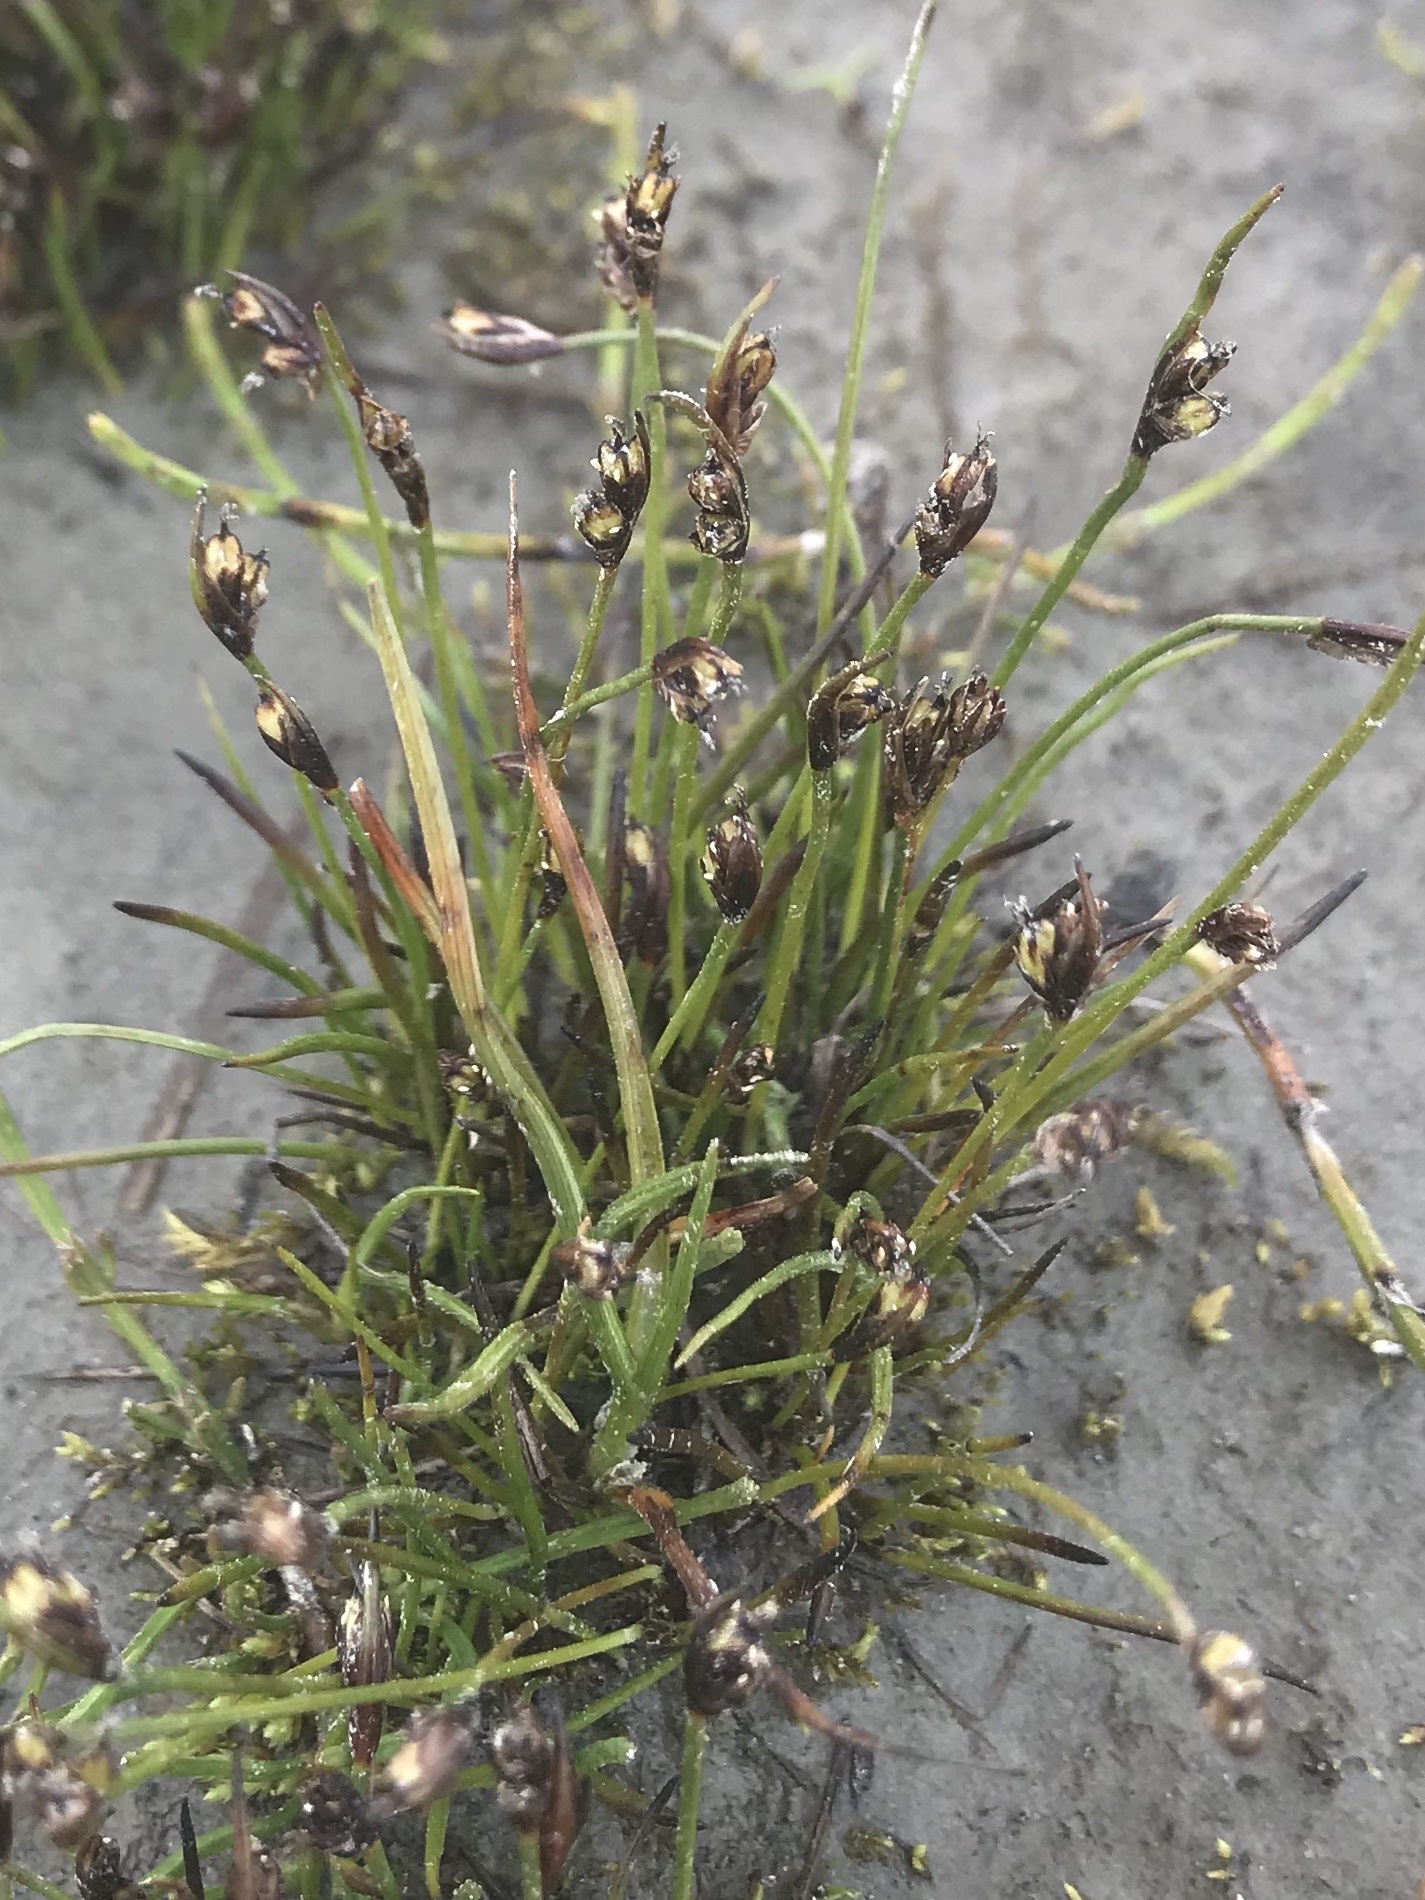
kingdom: Plantae
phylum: Tracheophyta
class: Liliopsida
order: Poales
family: Juncaceae
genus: Juncus
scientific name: Juncus biglumis
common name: Two-flowered rush
